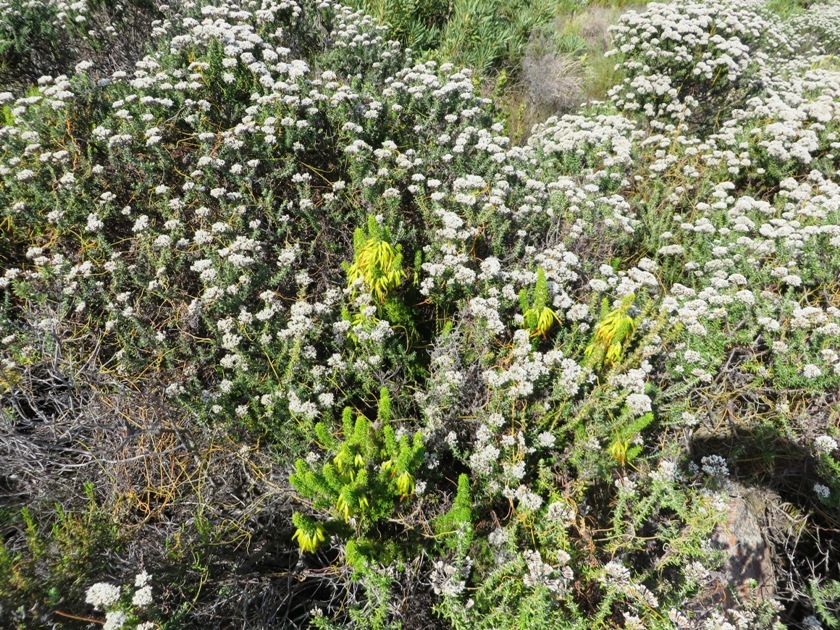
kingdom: Plantae
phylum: Tracheophyta
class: Magnoliopsida
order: Ericales
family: Ericaceae
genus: Erica
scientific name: Erica coccinea
